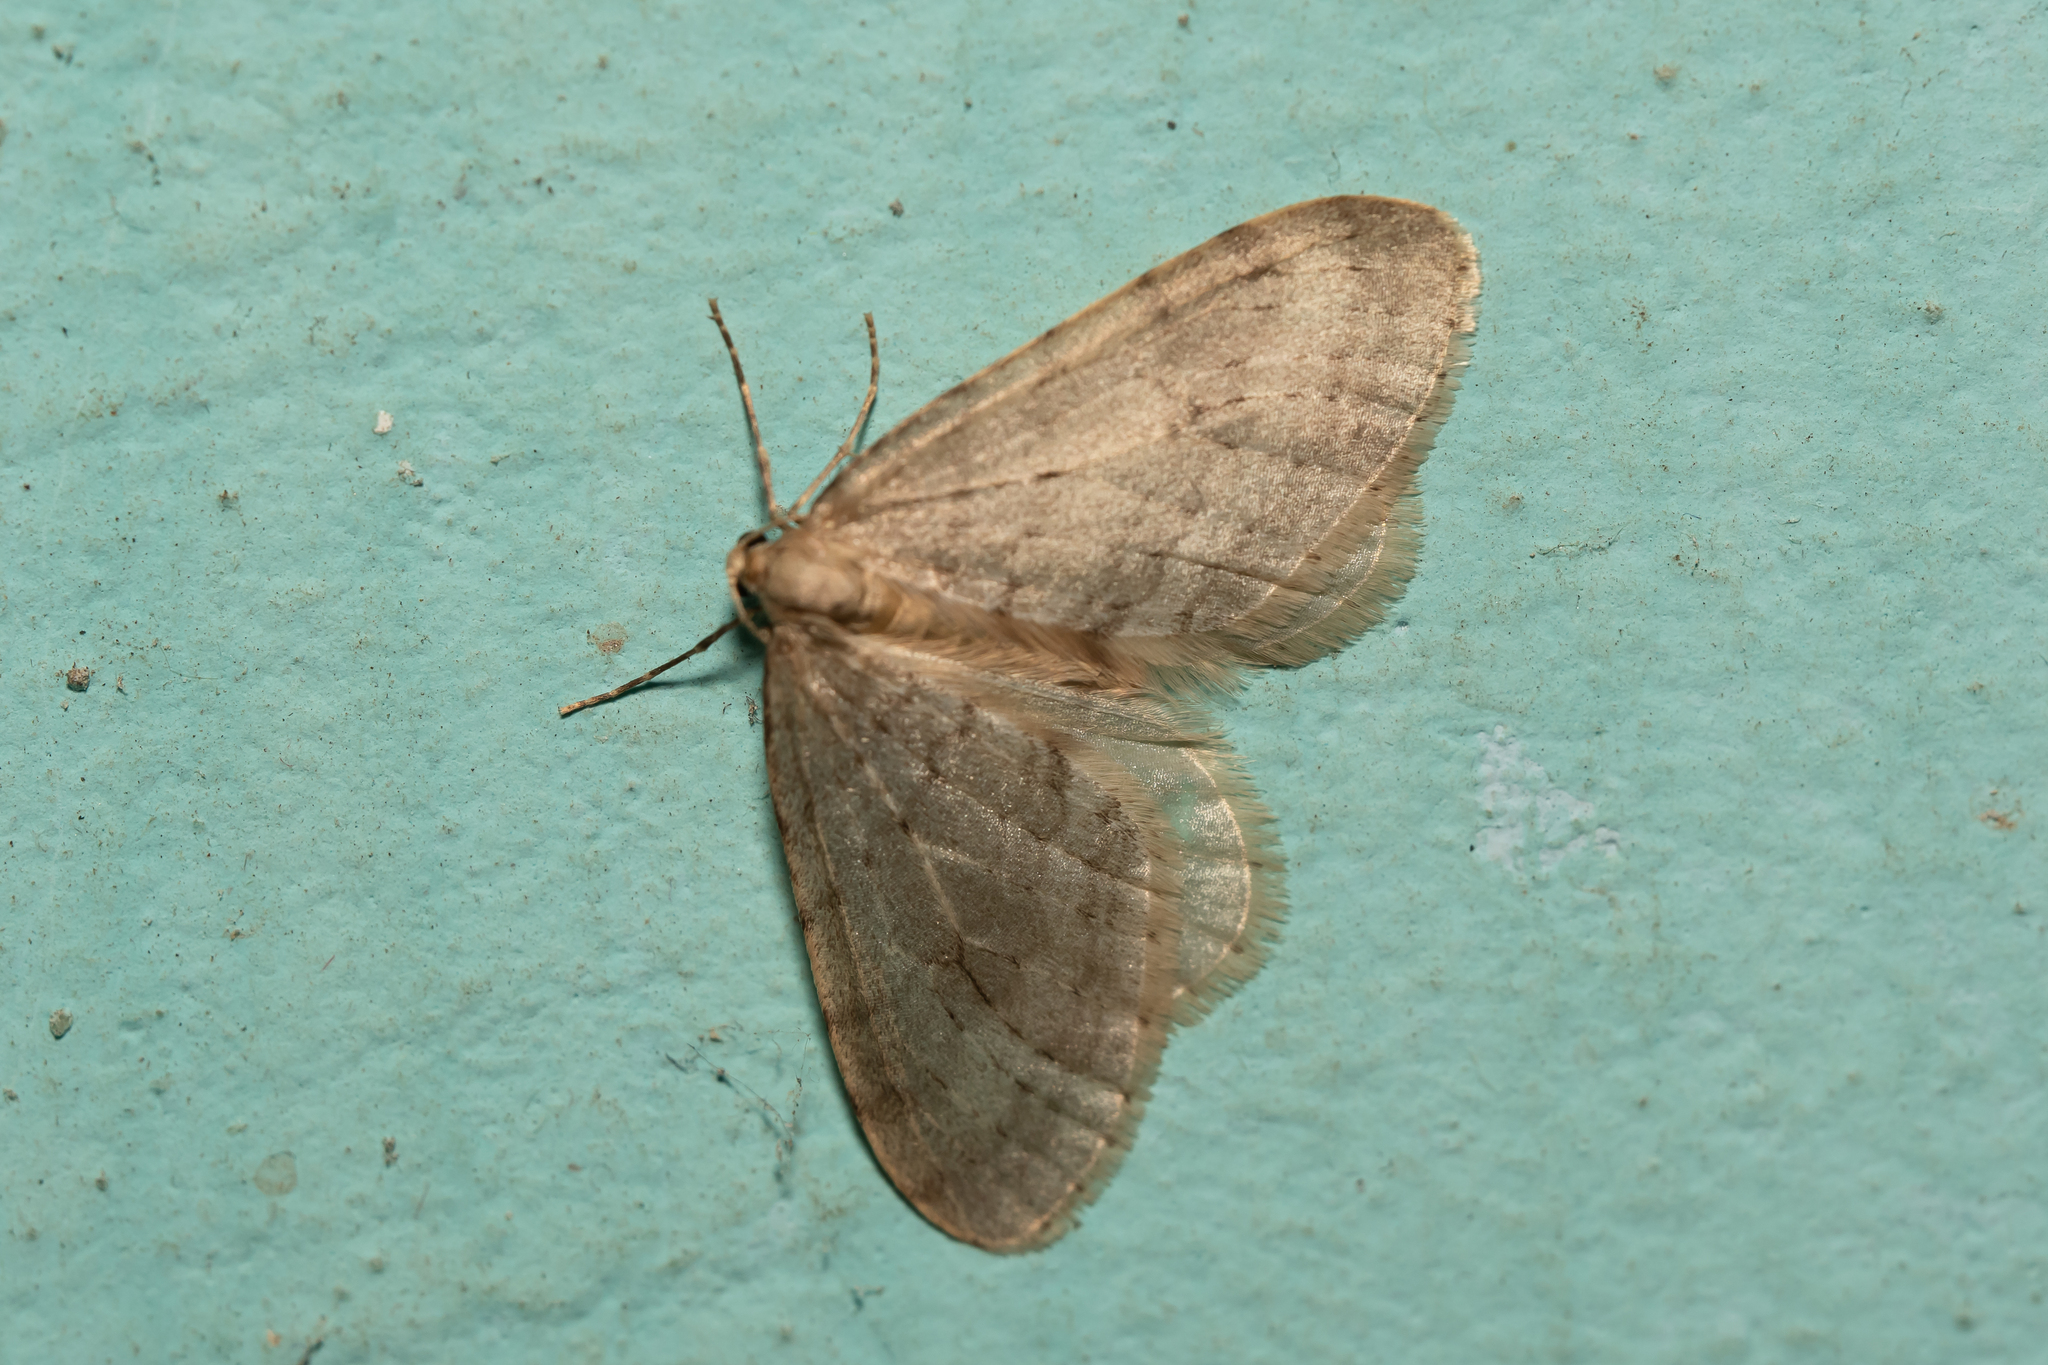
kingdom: Animalia
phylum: Arthropoda
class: Insecta
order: Lepidoptera
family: Geometridae
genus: Operophtera
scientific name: Operophtera fagata
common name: Northern winter moth
